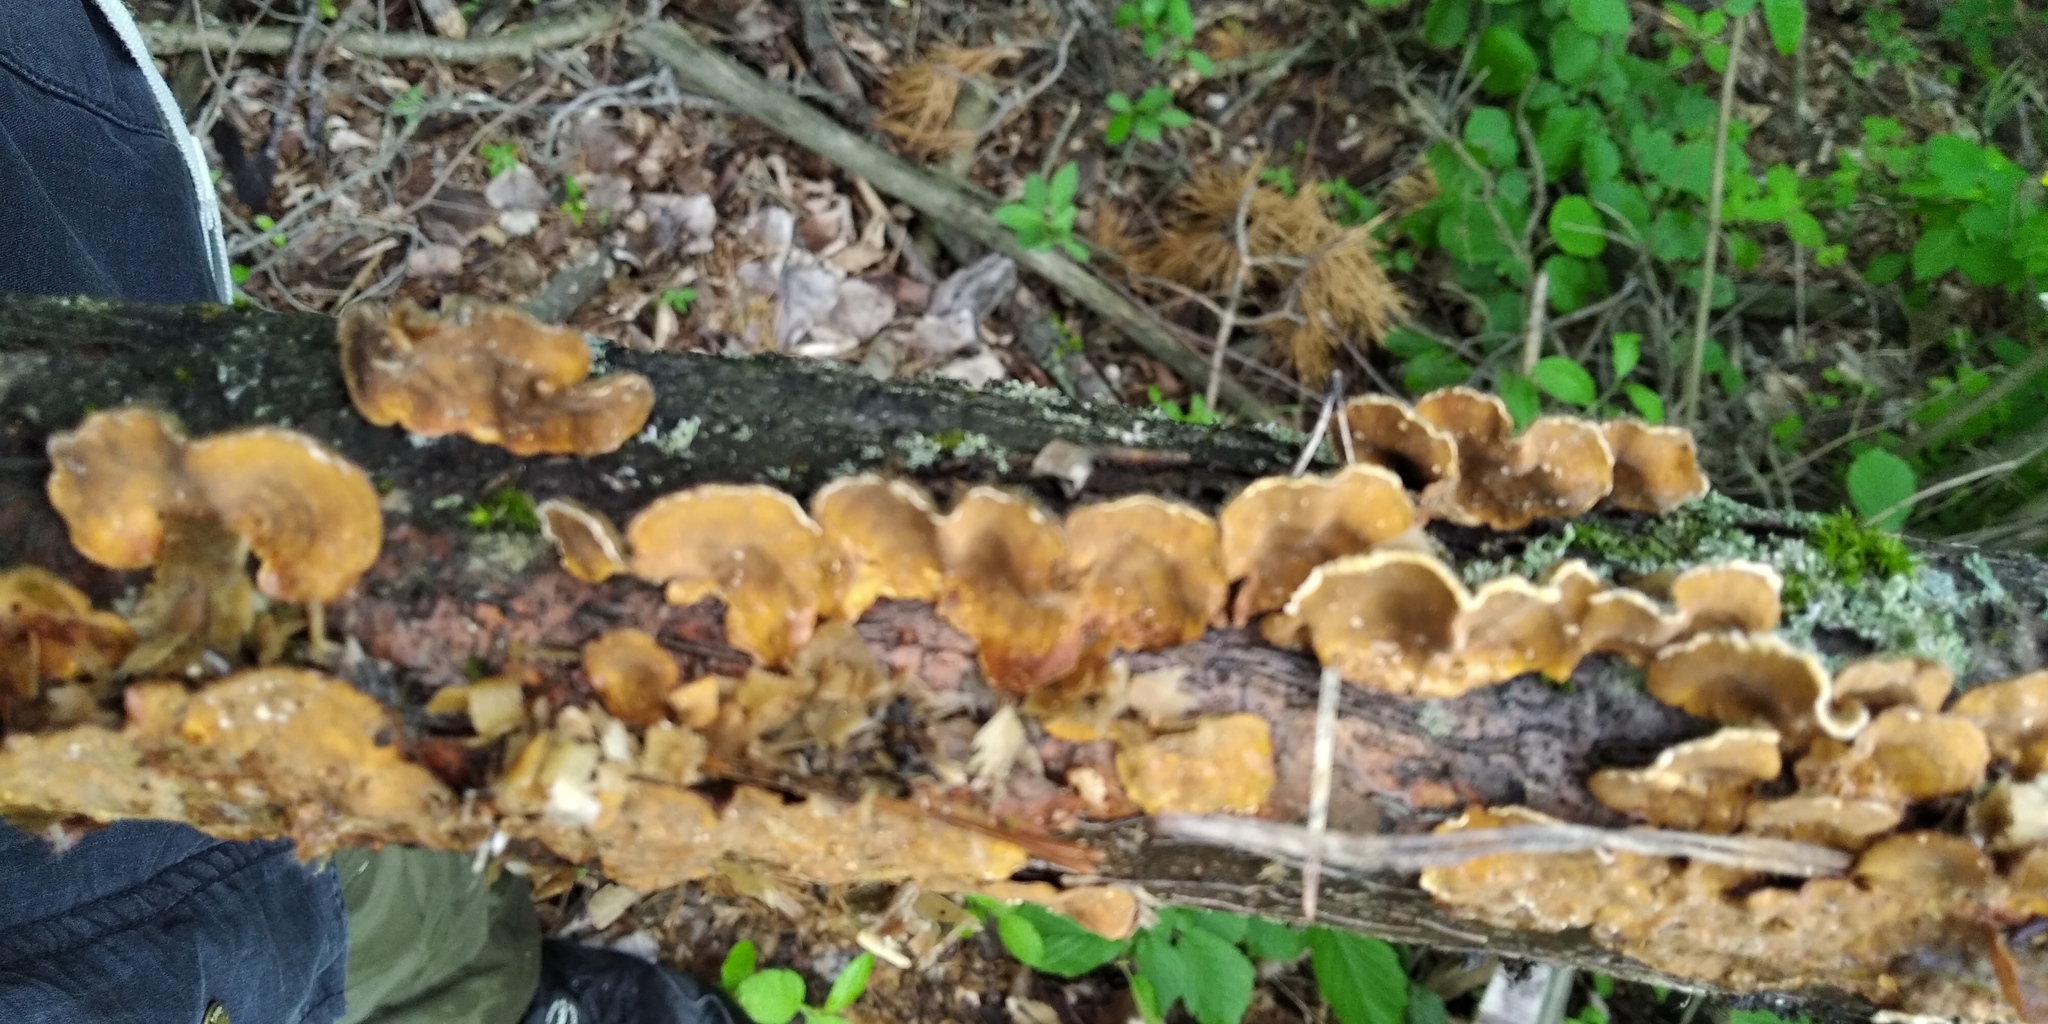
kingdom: Fungi
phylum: Basidiomycota
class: Agaricomycetes
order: Russulales
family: Stereaceae
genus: Stereum
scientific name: Stereum hirsutum
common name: Hairy curtain crust
